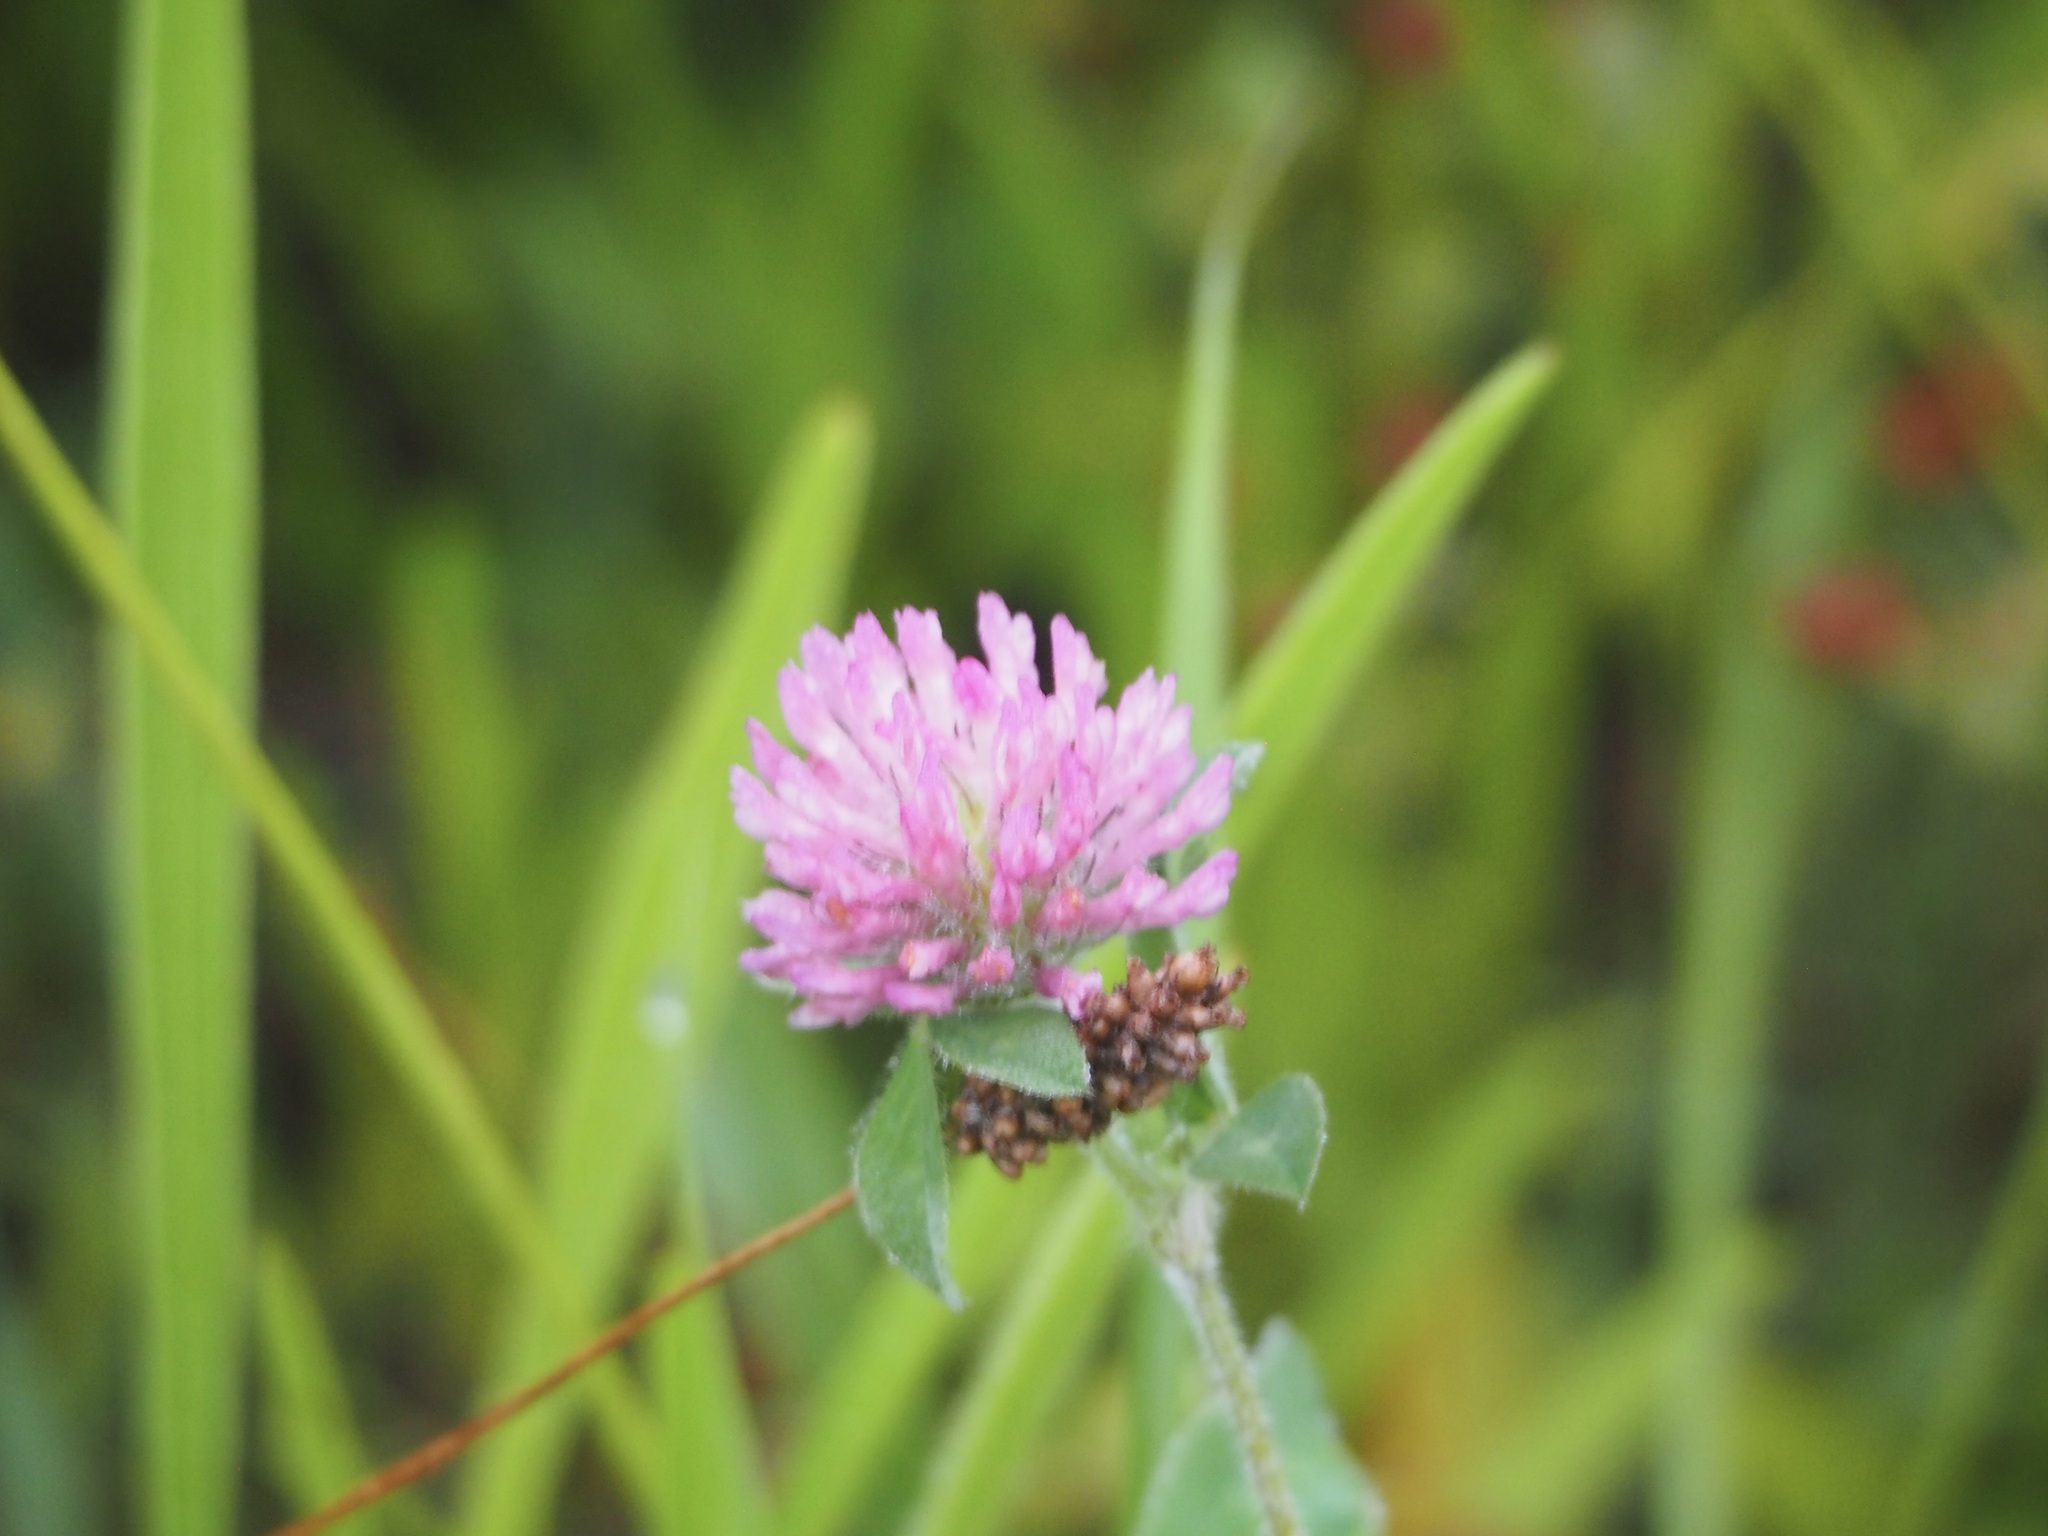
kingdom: Plantae
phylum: Tracheophyta
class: Magnoliopsida
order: Fabales
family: Fabaceae
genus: Trifolium
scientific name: Trifolium pratense
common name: Red clover
